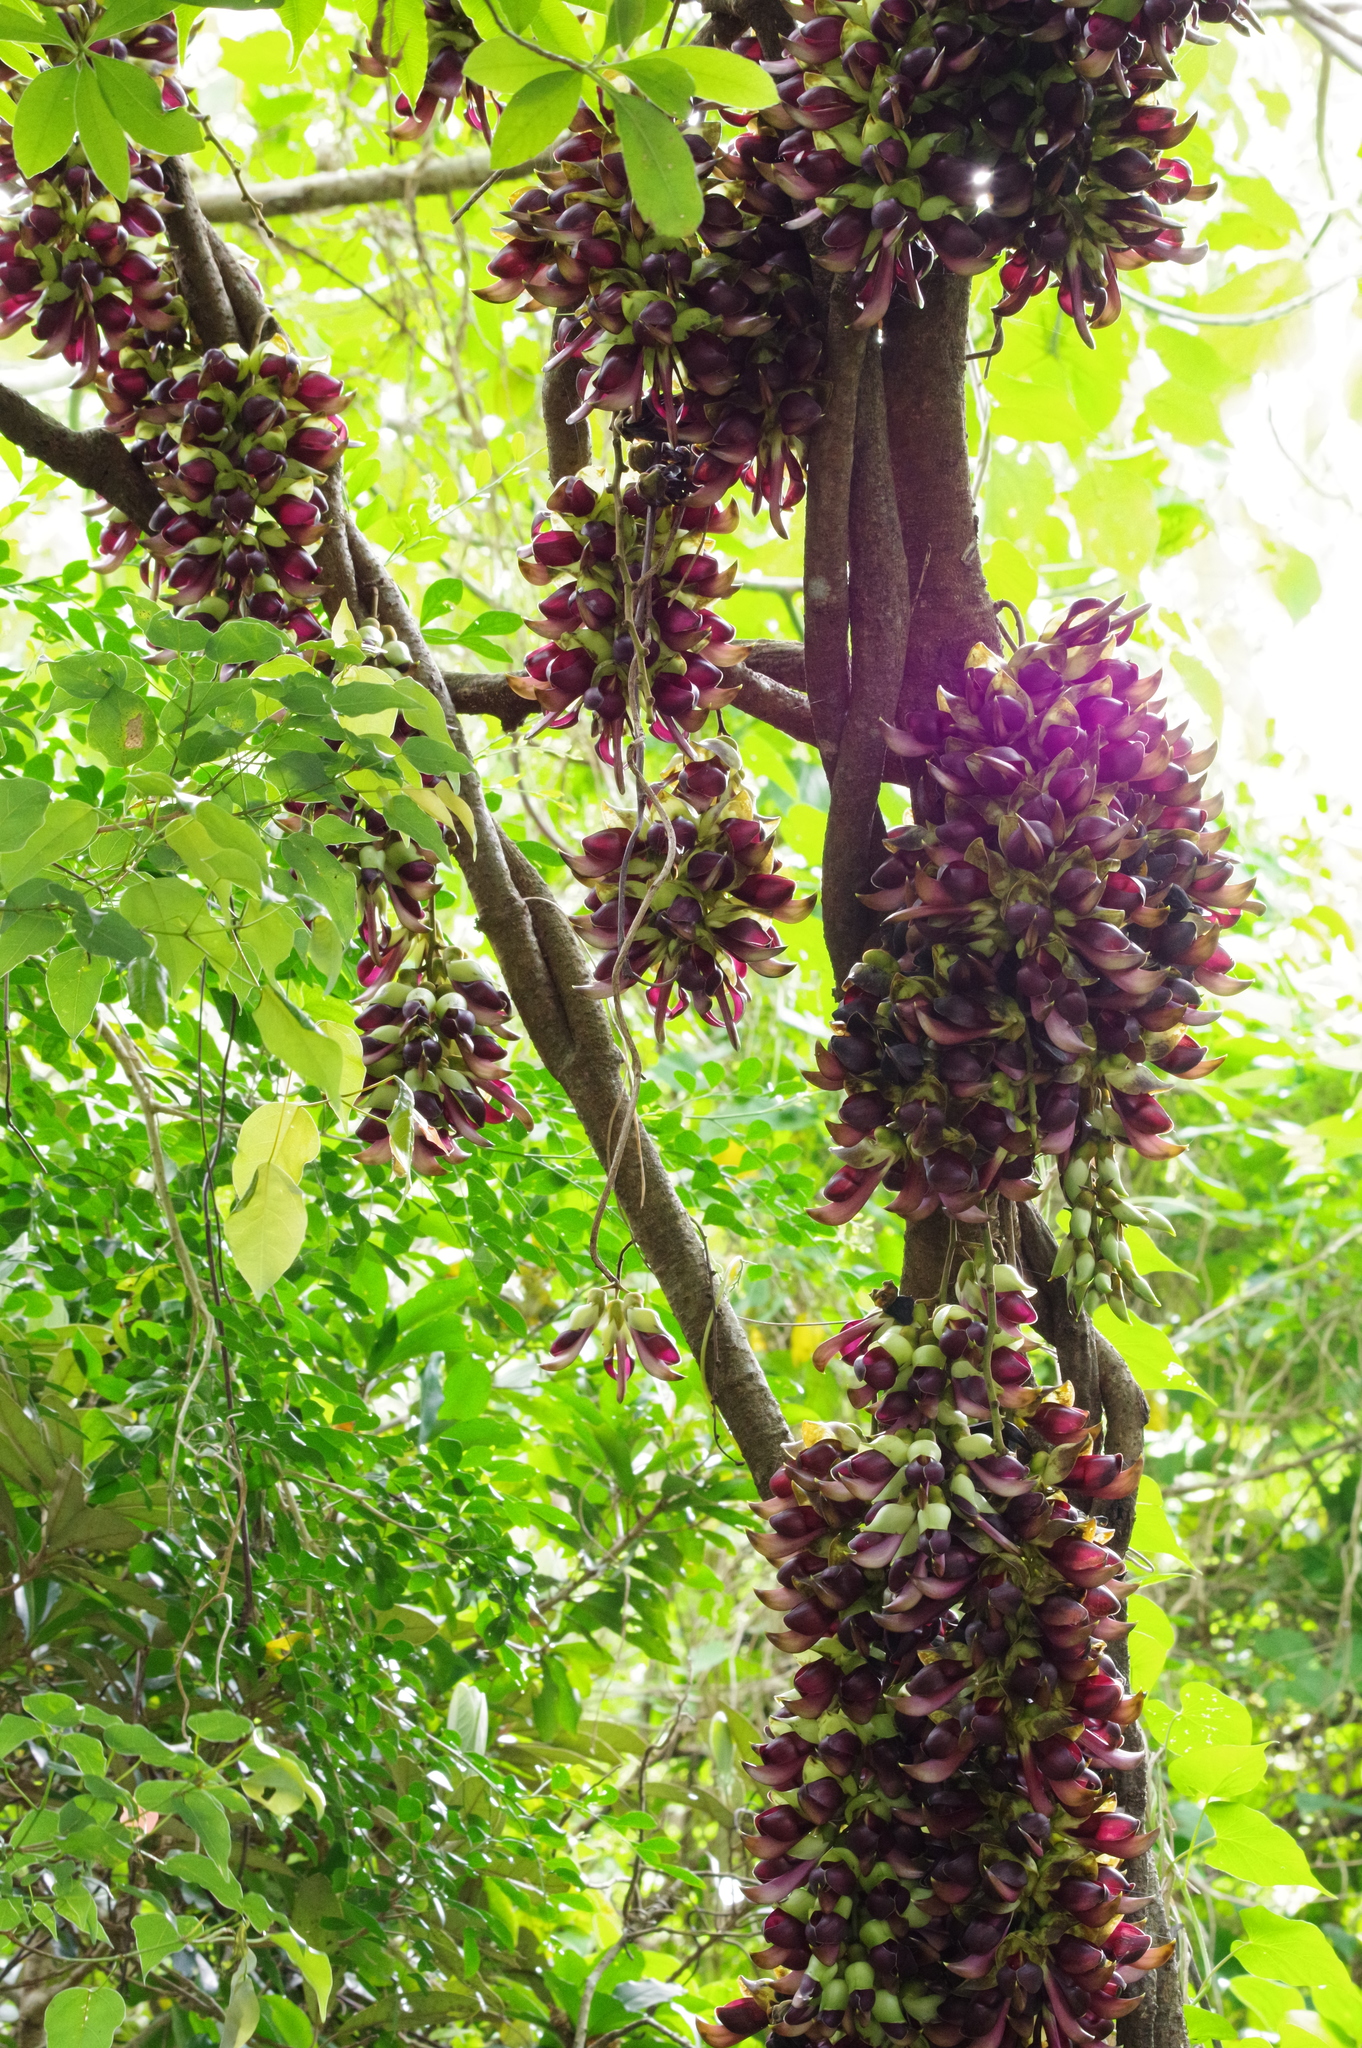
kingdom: Plantae
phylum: Tracheophyta
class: Magnoliopsida
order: Fabales
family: Fabaceae
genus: Mucuna
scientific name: Mucuna macrocarpa
